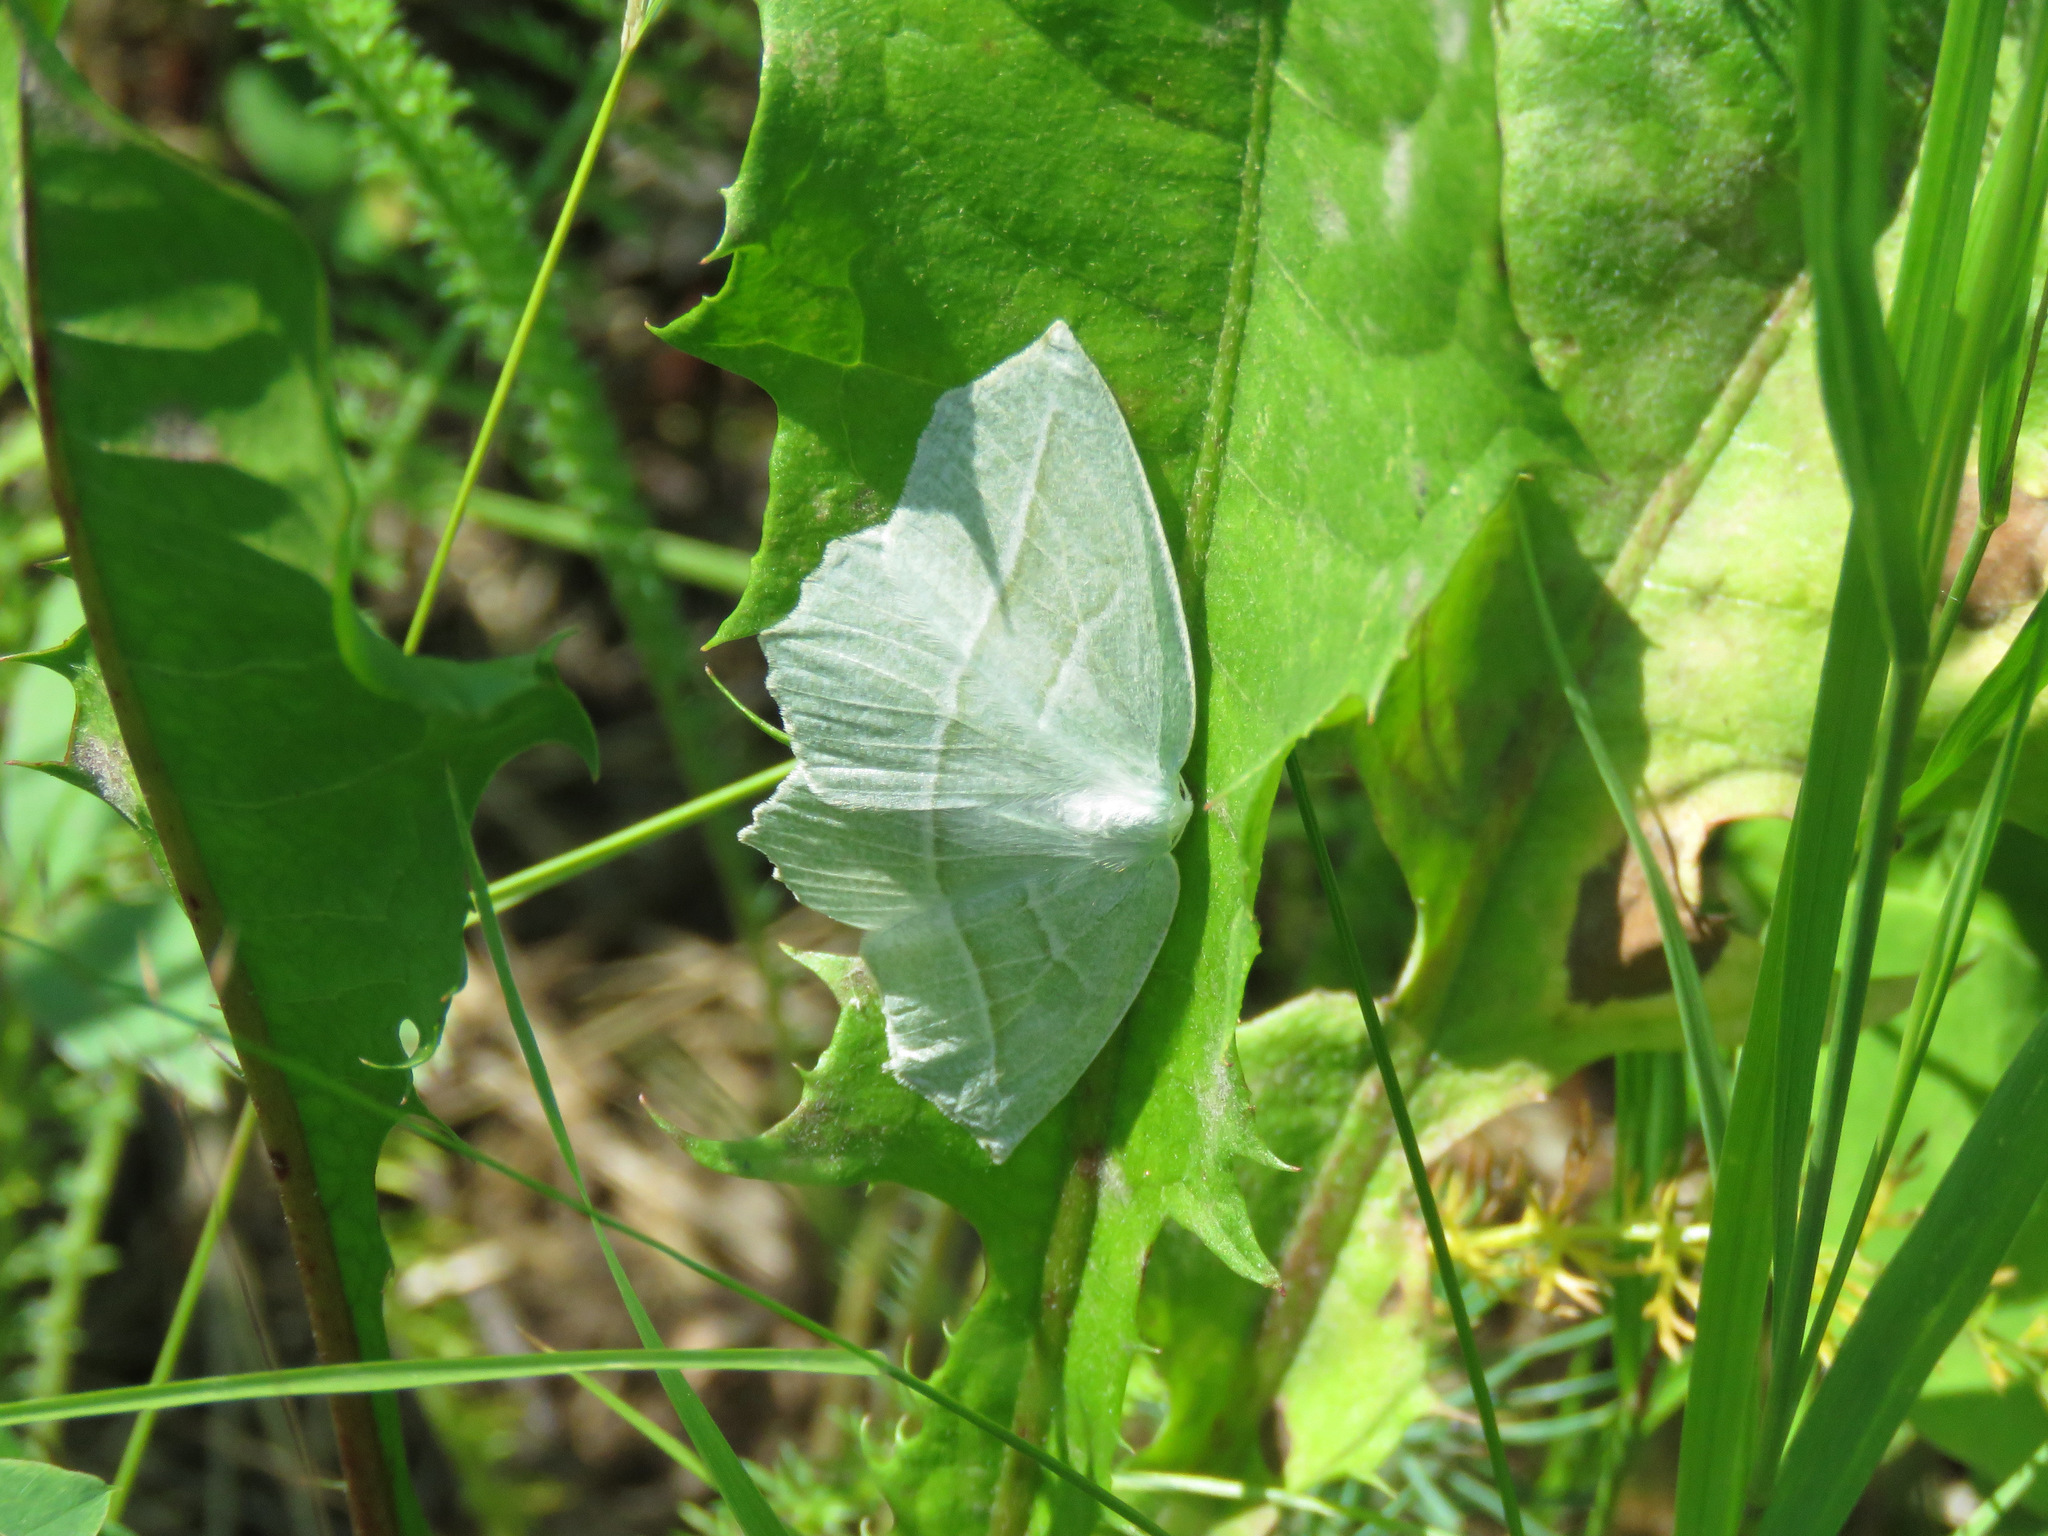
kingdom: Animalia
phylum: Arthropoda
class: Insecta
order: Lepidoptera
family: Geometridae
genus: Campaea
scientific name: Campaea perlata
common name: Fringed looper
